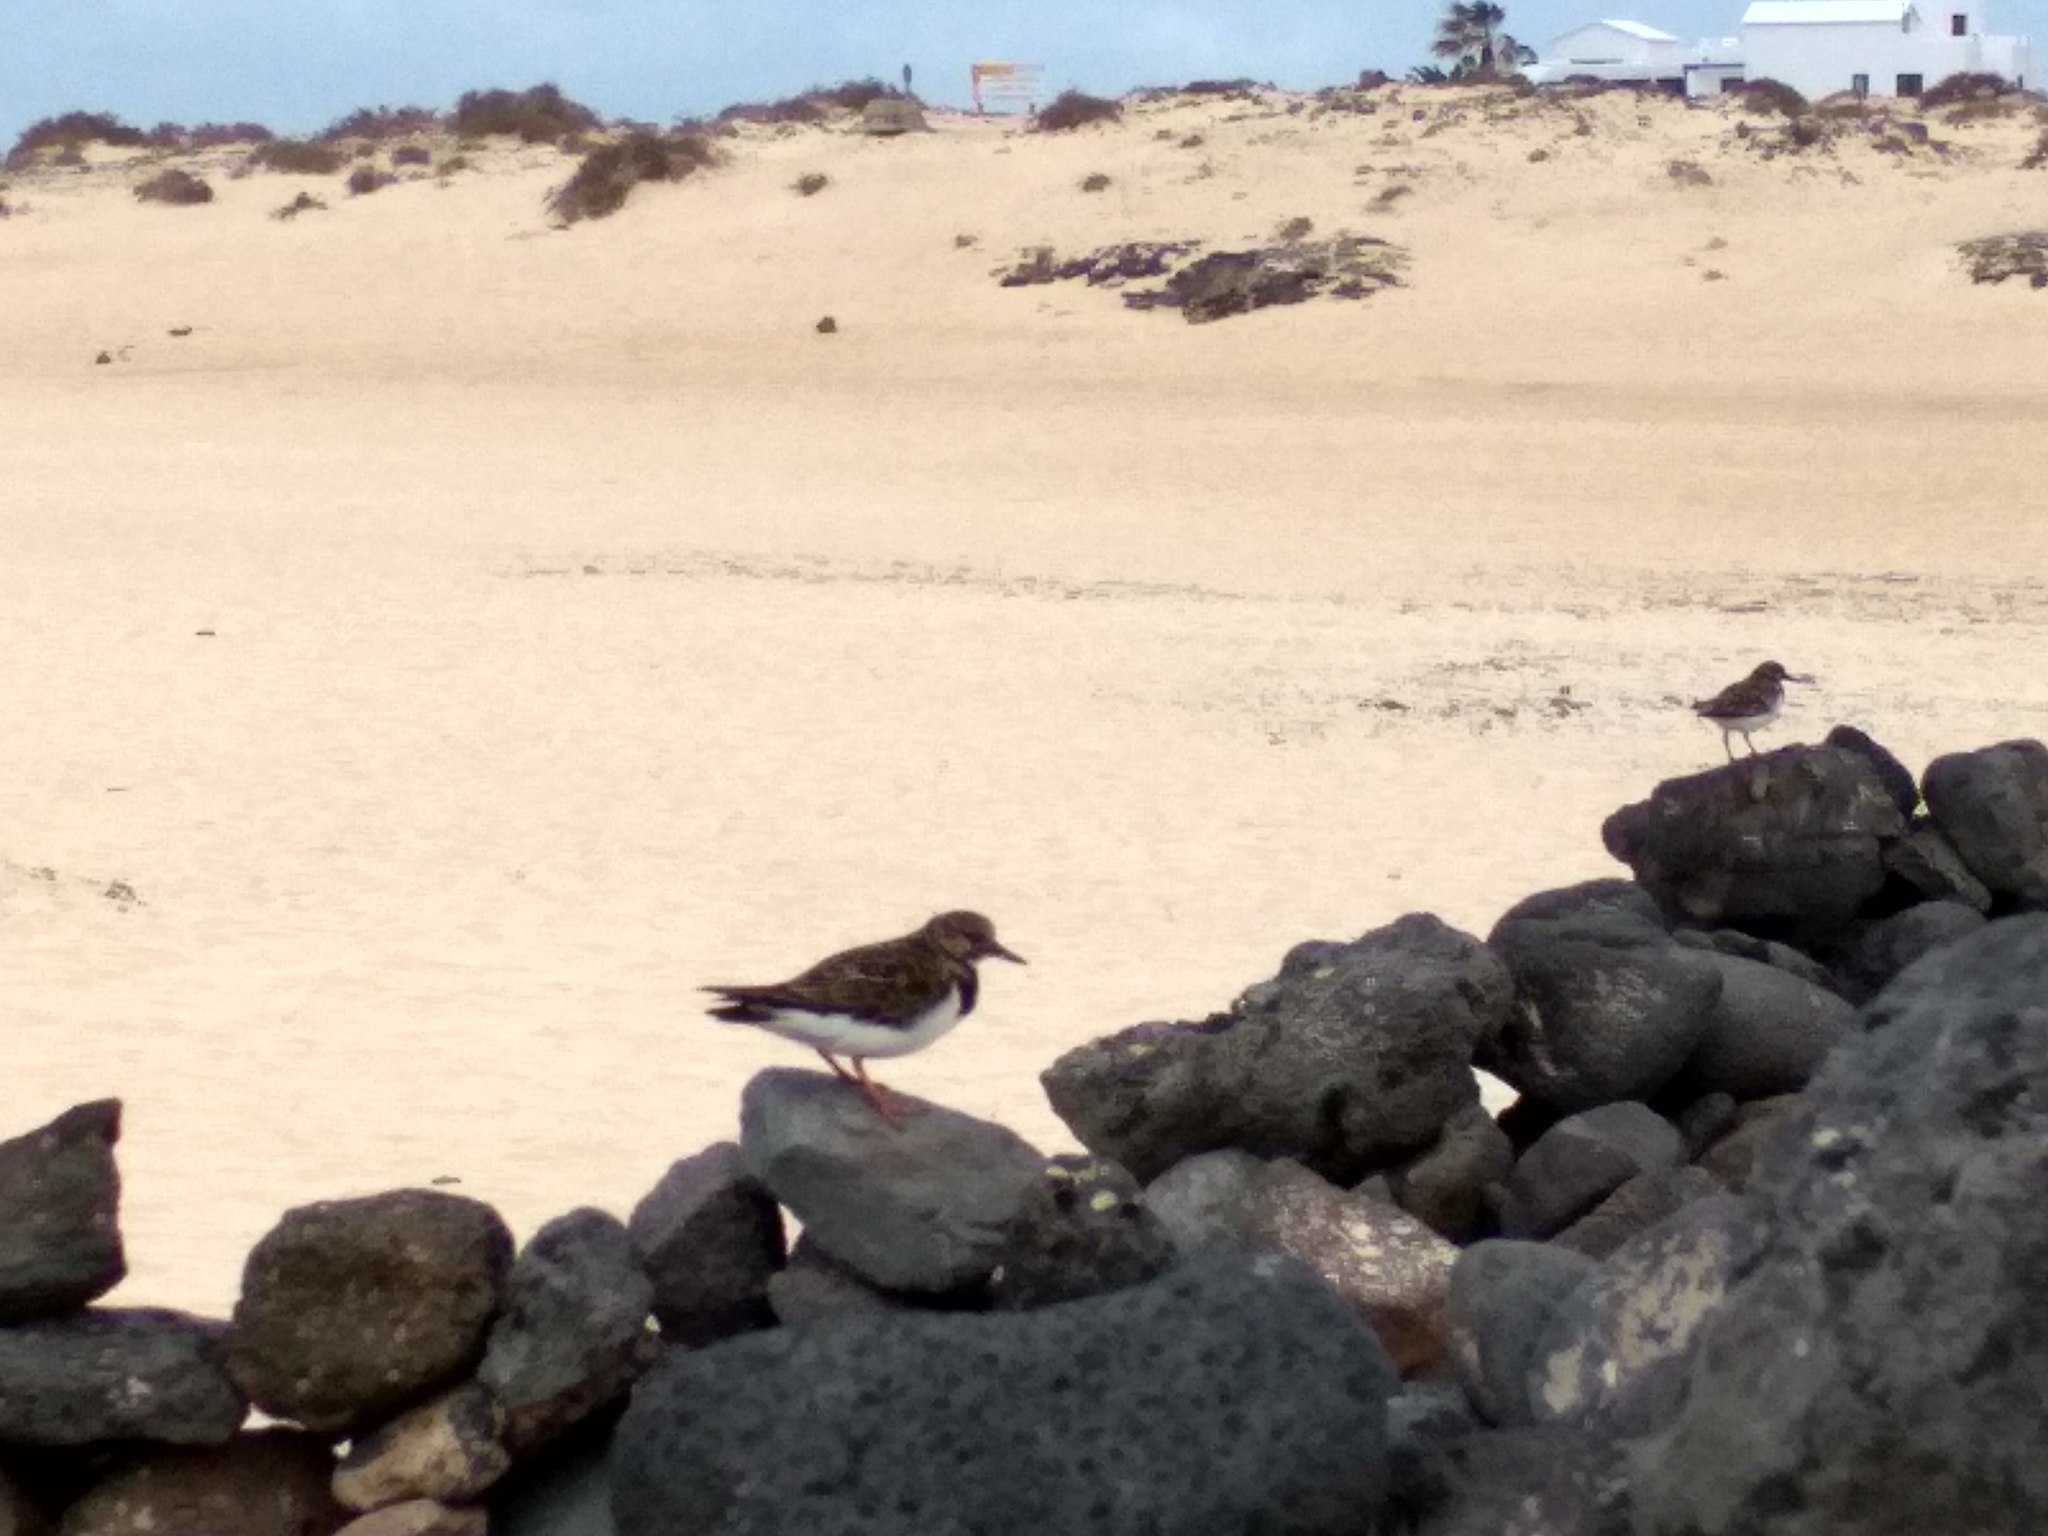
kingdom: Animalia
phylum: Chordata
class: Aves
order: Charadriiformes
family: Scolopacidae
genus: Arenaria
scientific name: Arenaria interpres
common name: Ruddy turnstone
